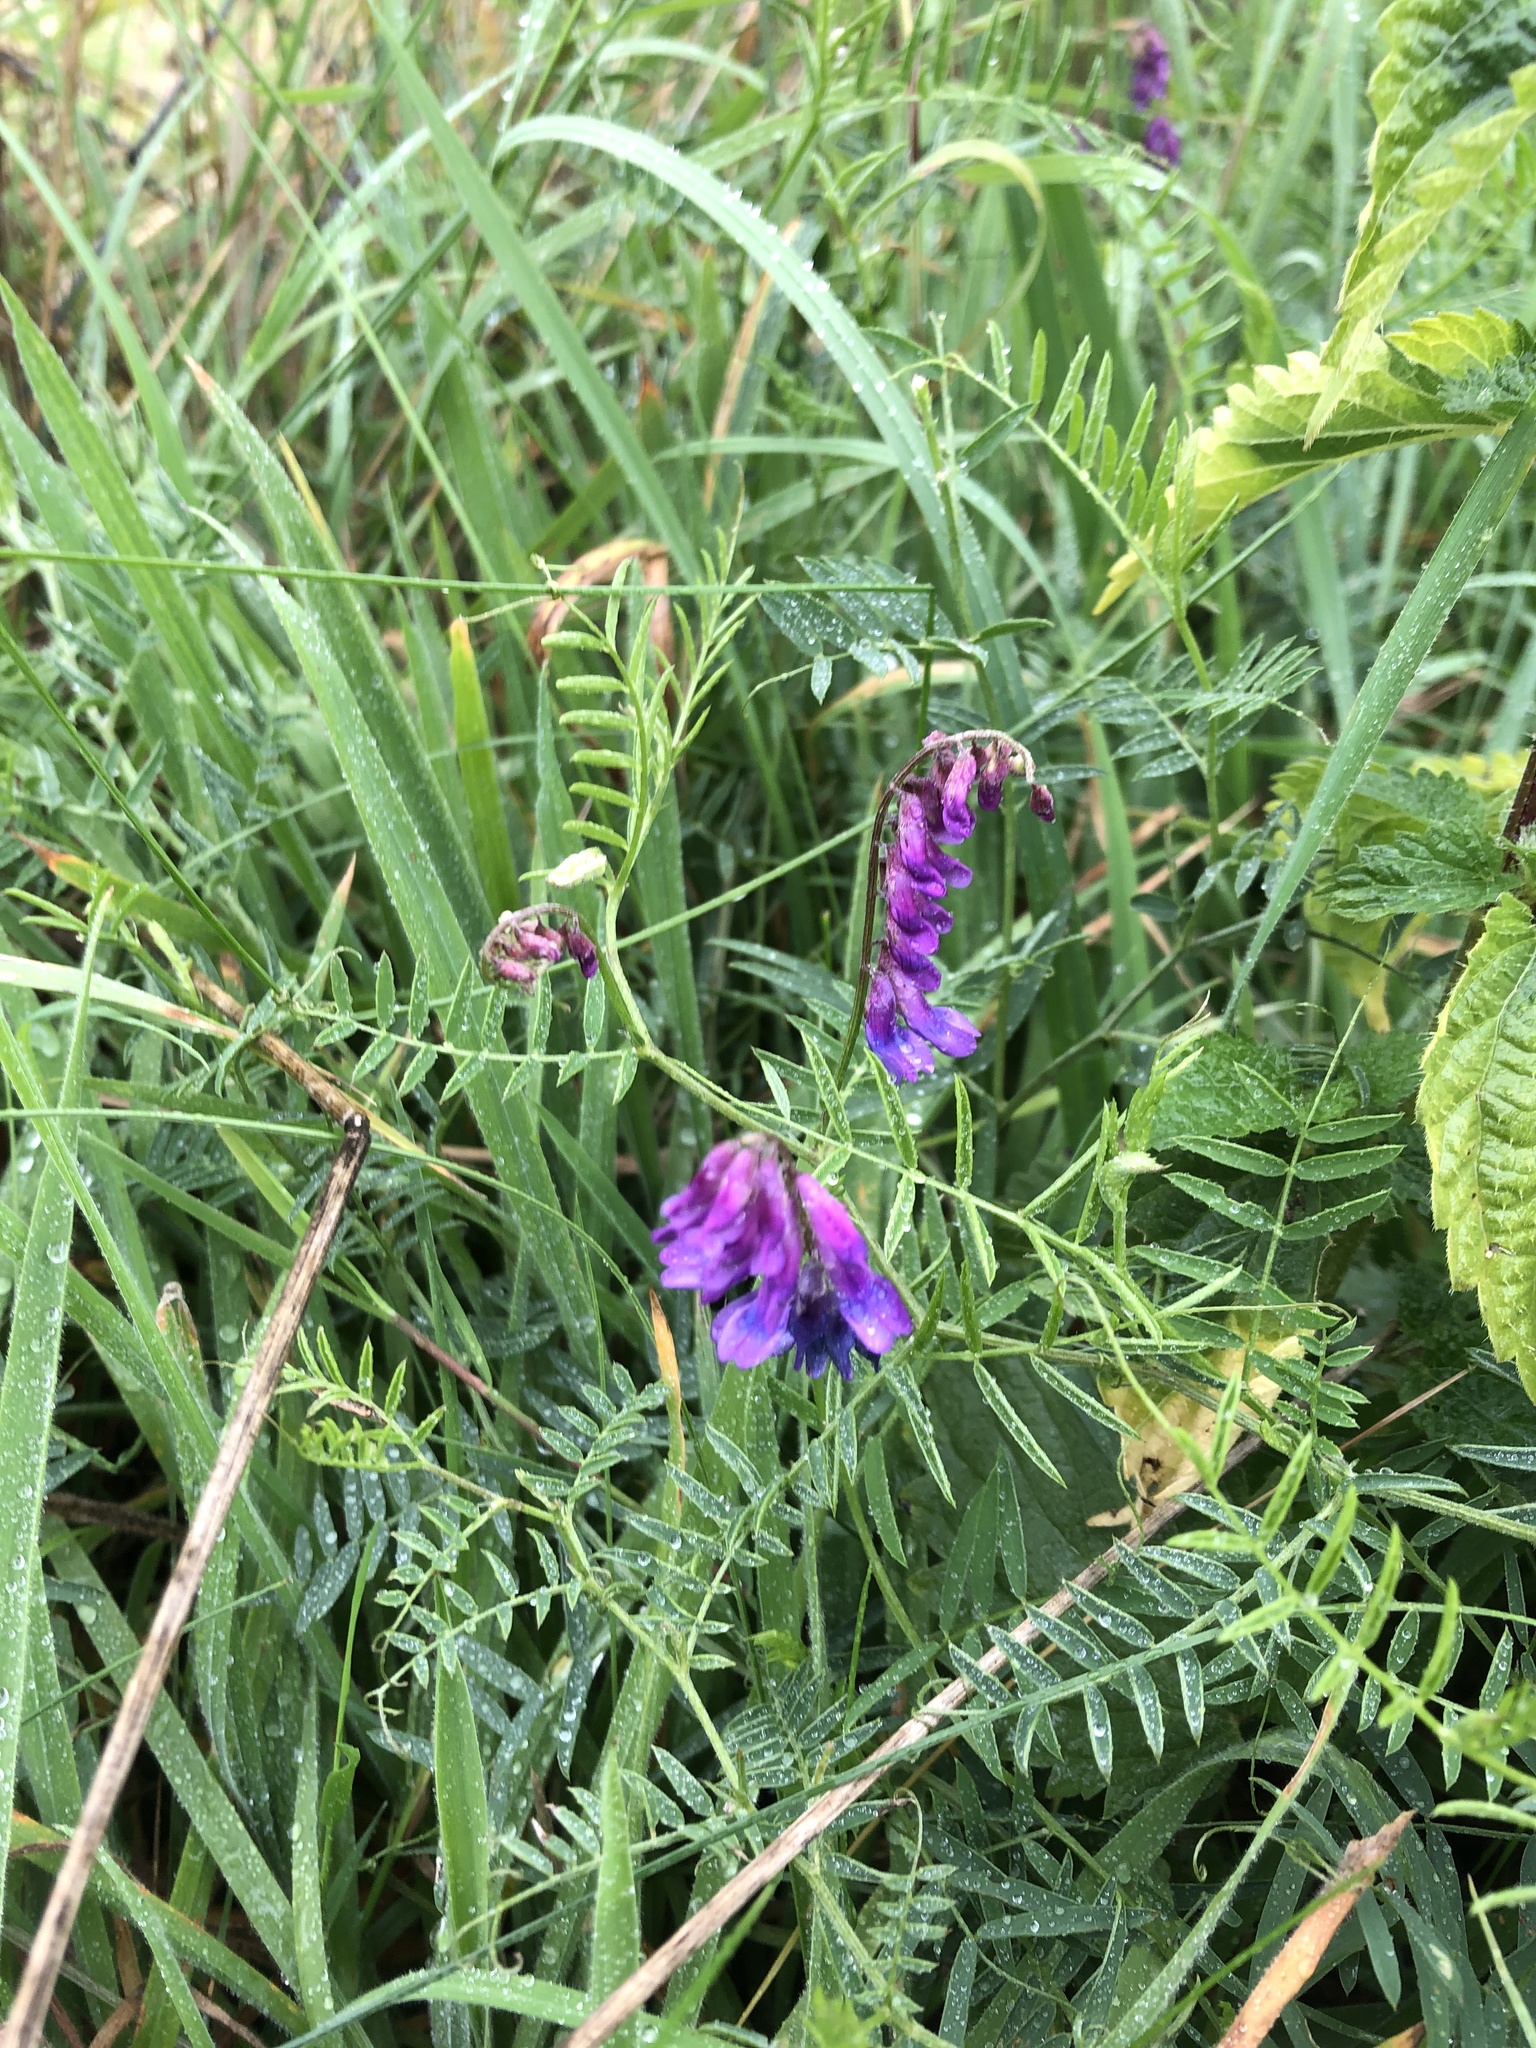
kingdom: Plantae
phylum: Tracheophyta
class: Magnoliopsida
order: Fabales
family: Fabaceae
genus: Vicia
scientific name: Vicia cracca
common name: Bird vetch
